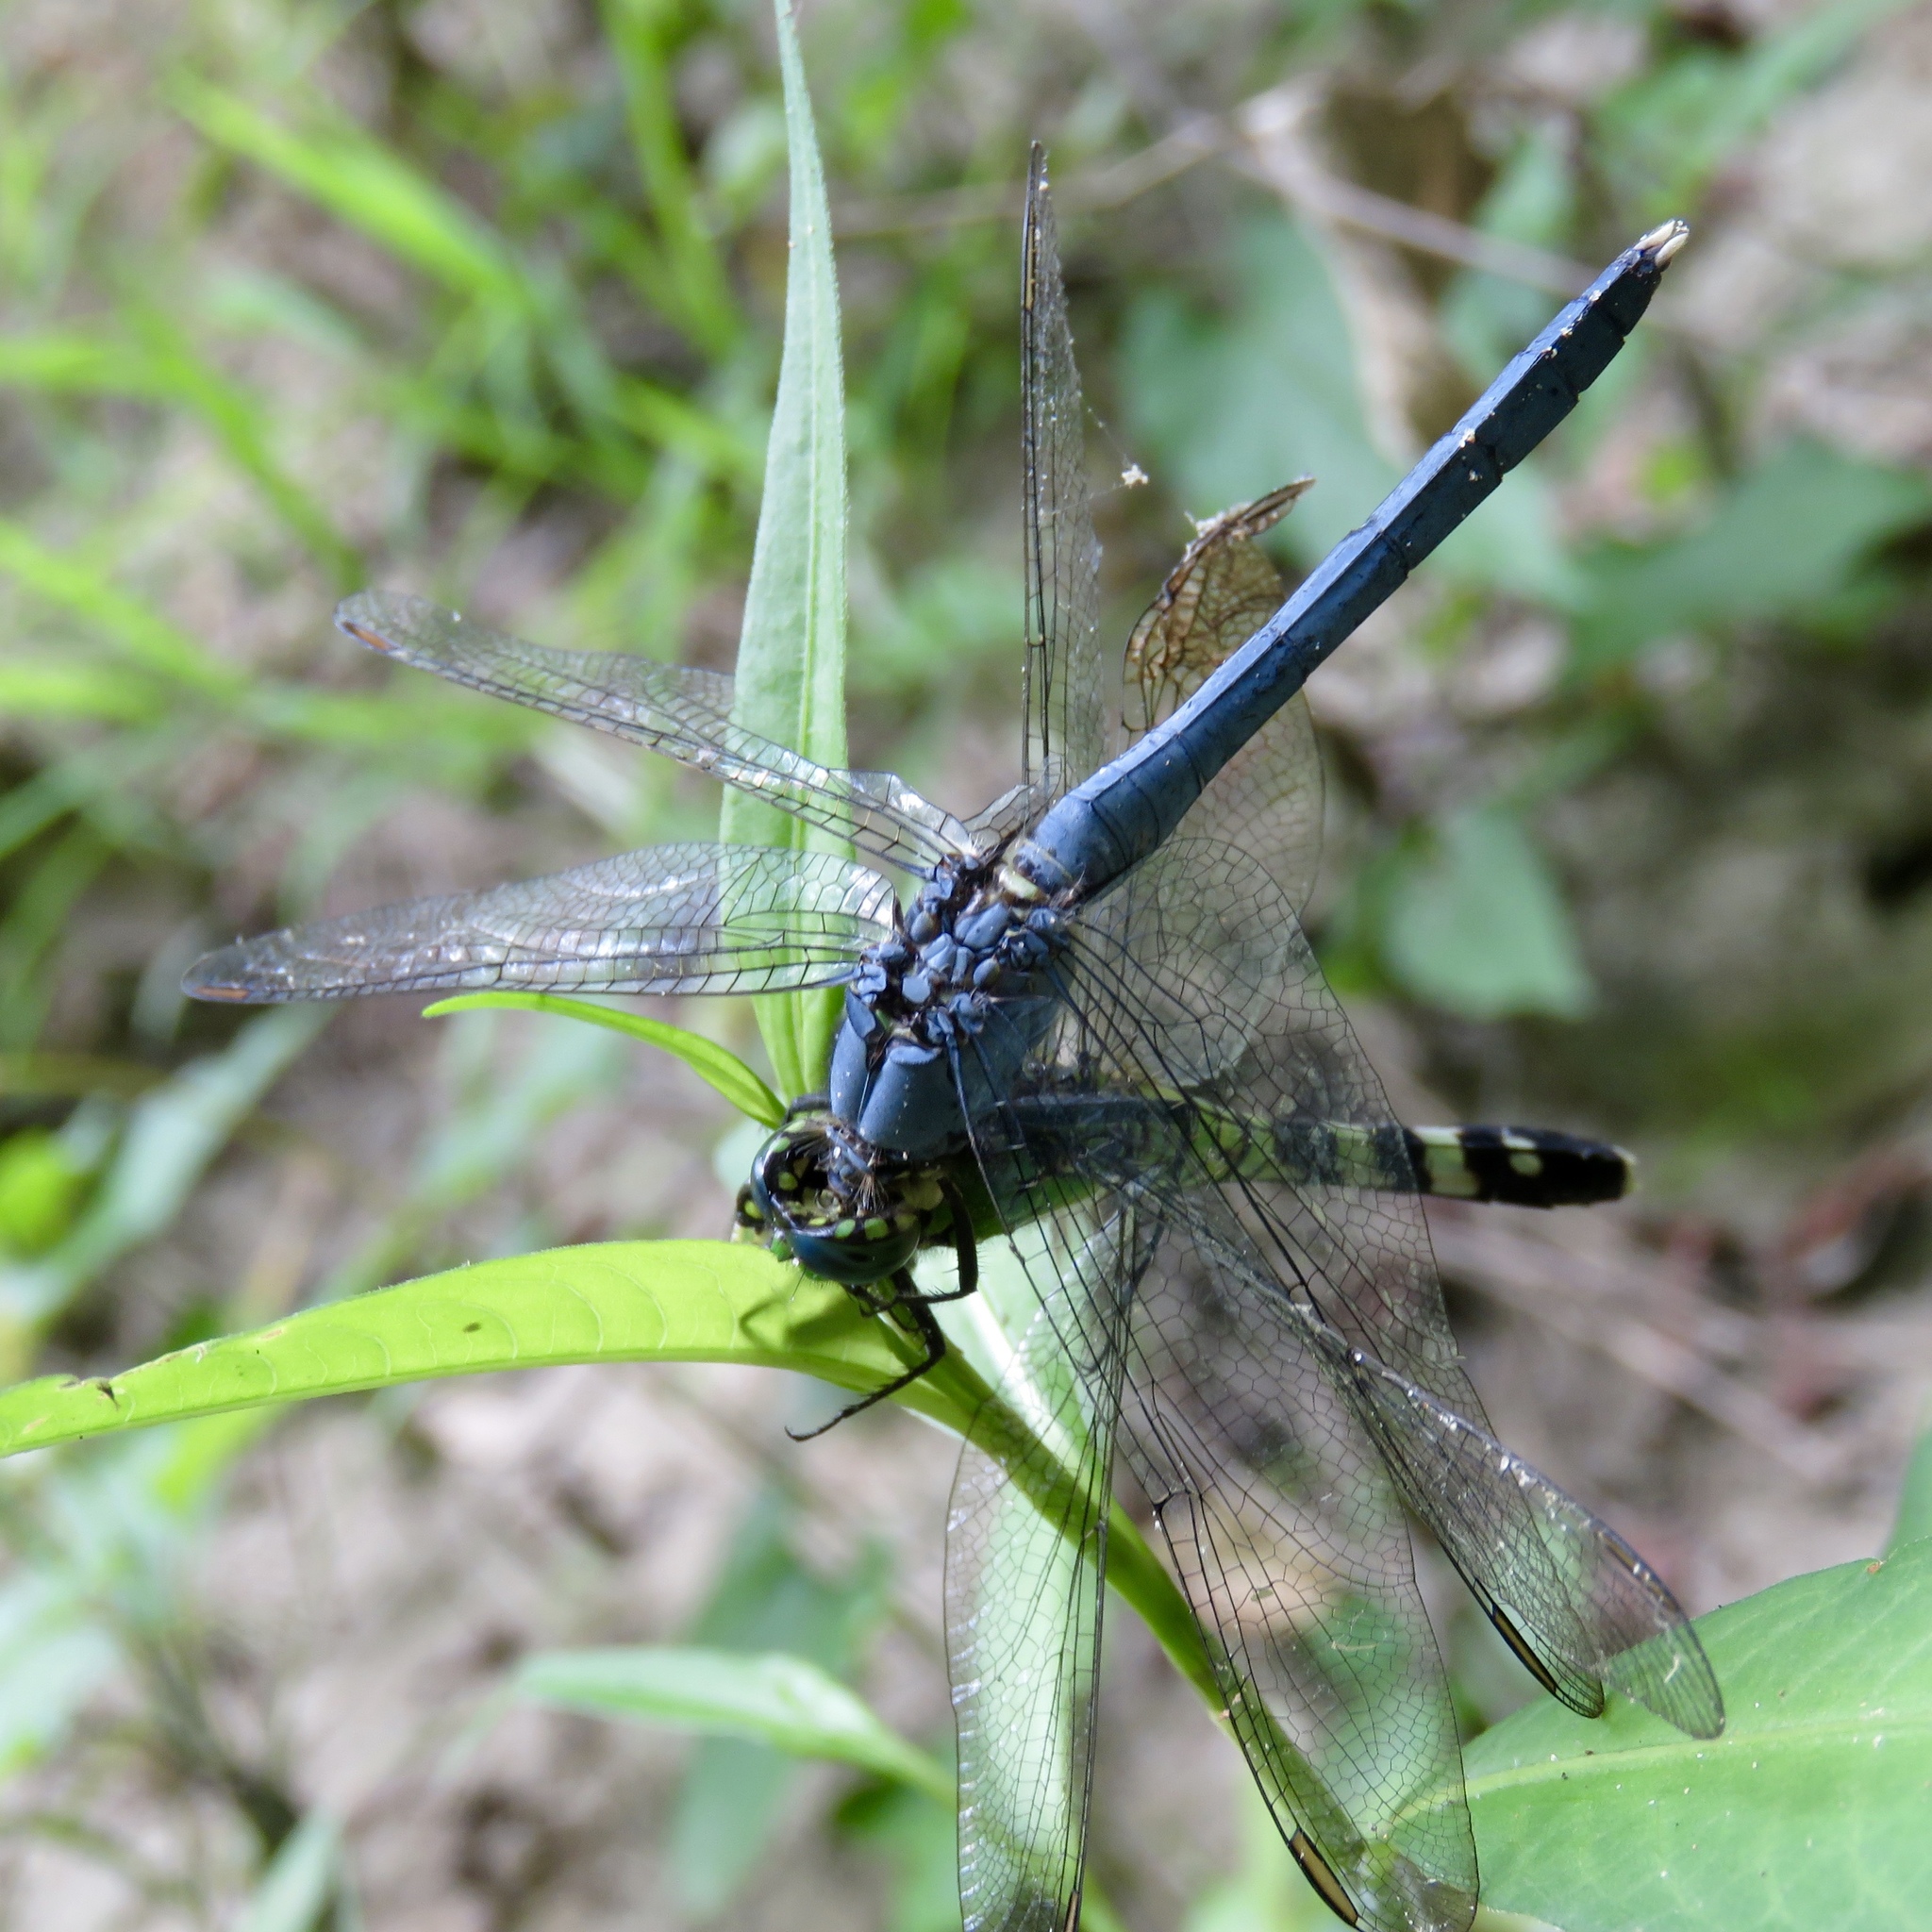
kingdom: Animalia
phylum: Arthropoda
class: Insecta
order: Odonata
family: Libellulidae
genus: Erythemis
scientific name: Erythemis simplicicollis
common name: Eastern pondhawk
